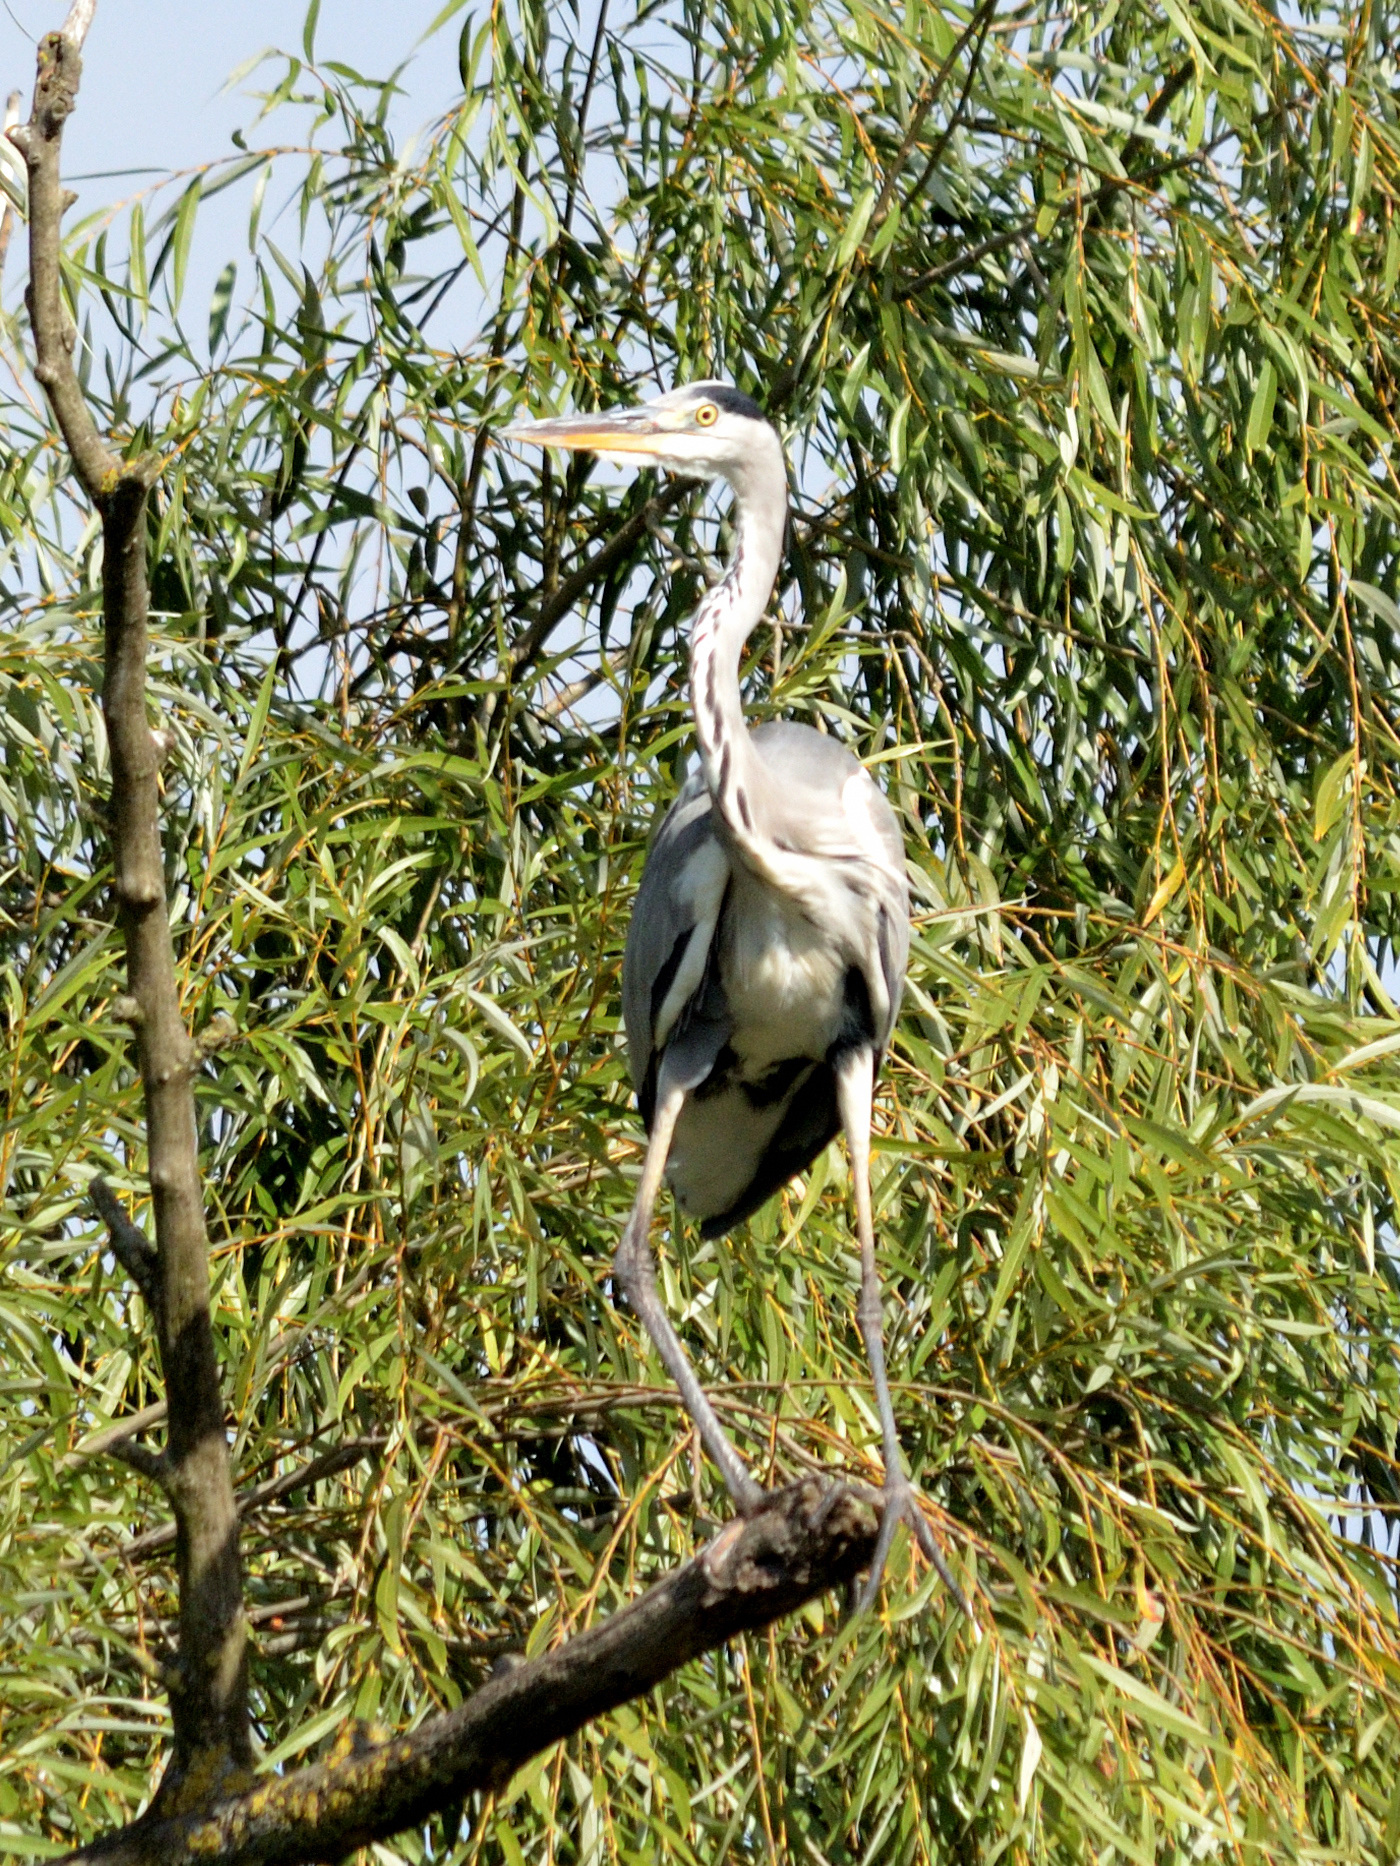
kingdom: Animalia
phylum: Chordata
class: Aves
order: Pelecaniformes
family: Ardeidae
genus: Ardea
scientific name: Ardea cinerea
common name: Grey heron
